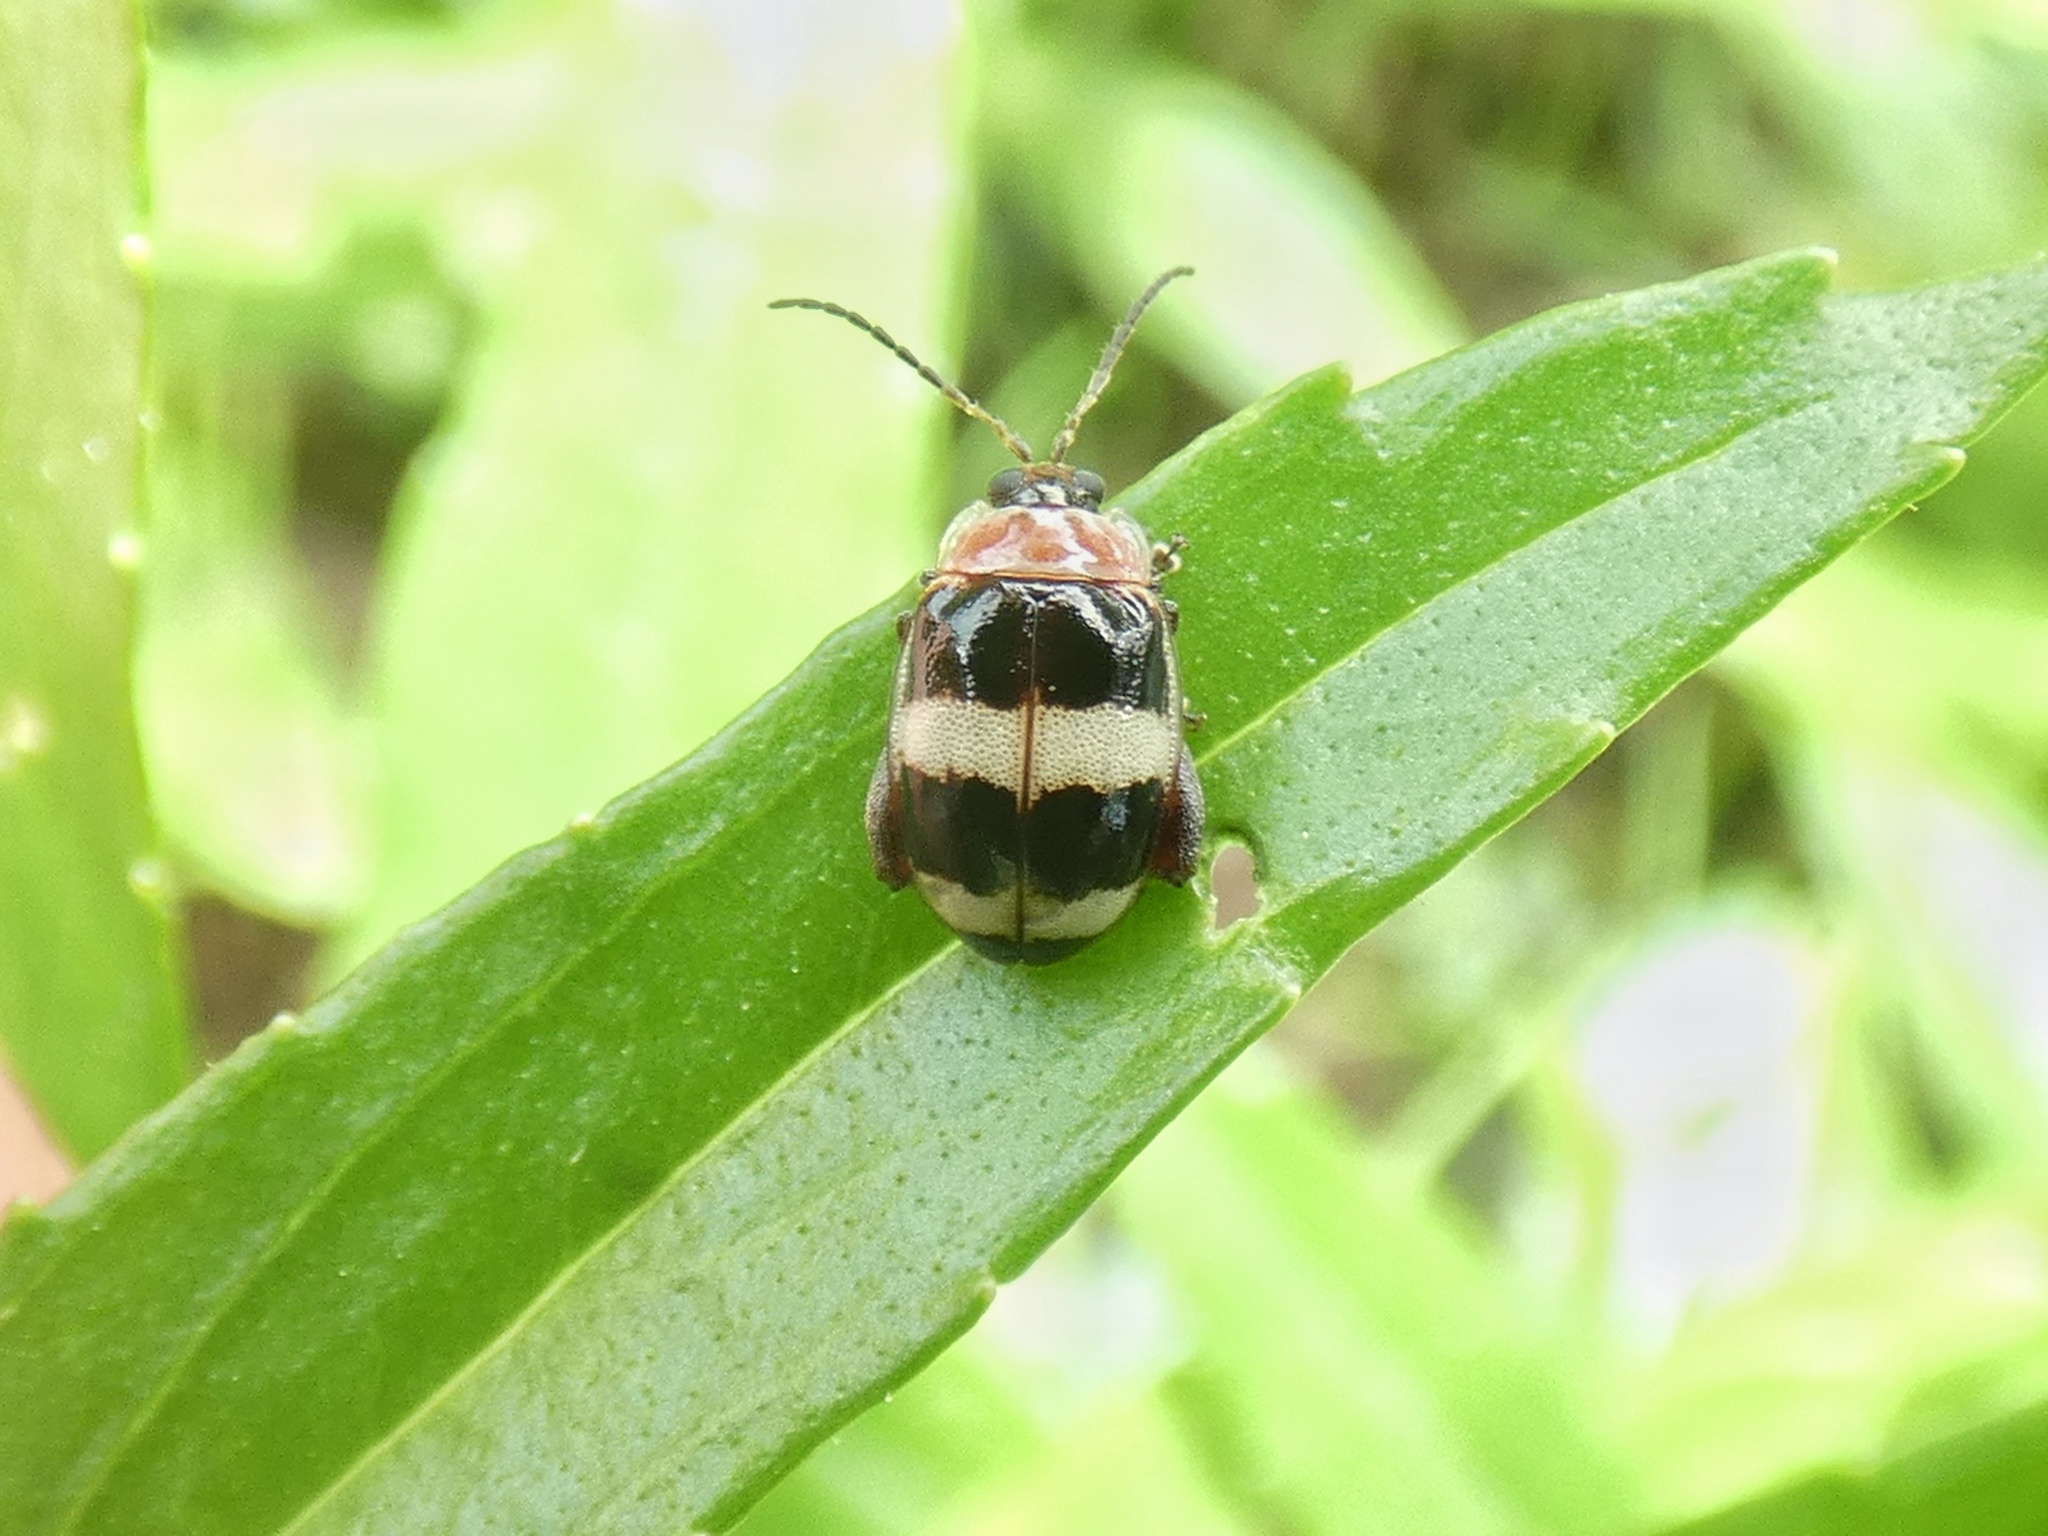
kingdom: Animalia
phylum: Arthropoda
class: Insecta
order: Coleoptera
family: Chrysomelidae
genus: Alagoasa
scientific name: Alagoasa trifasciata
